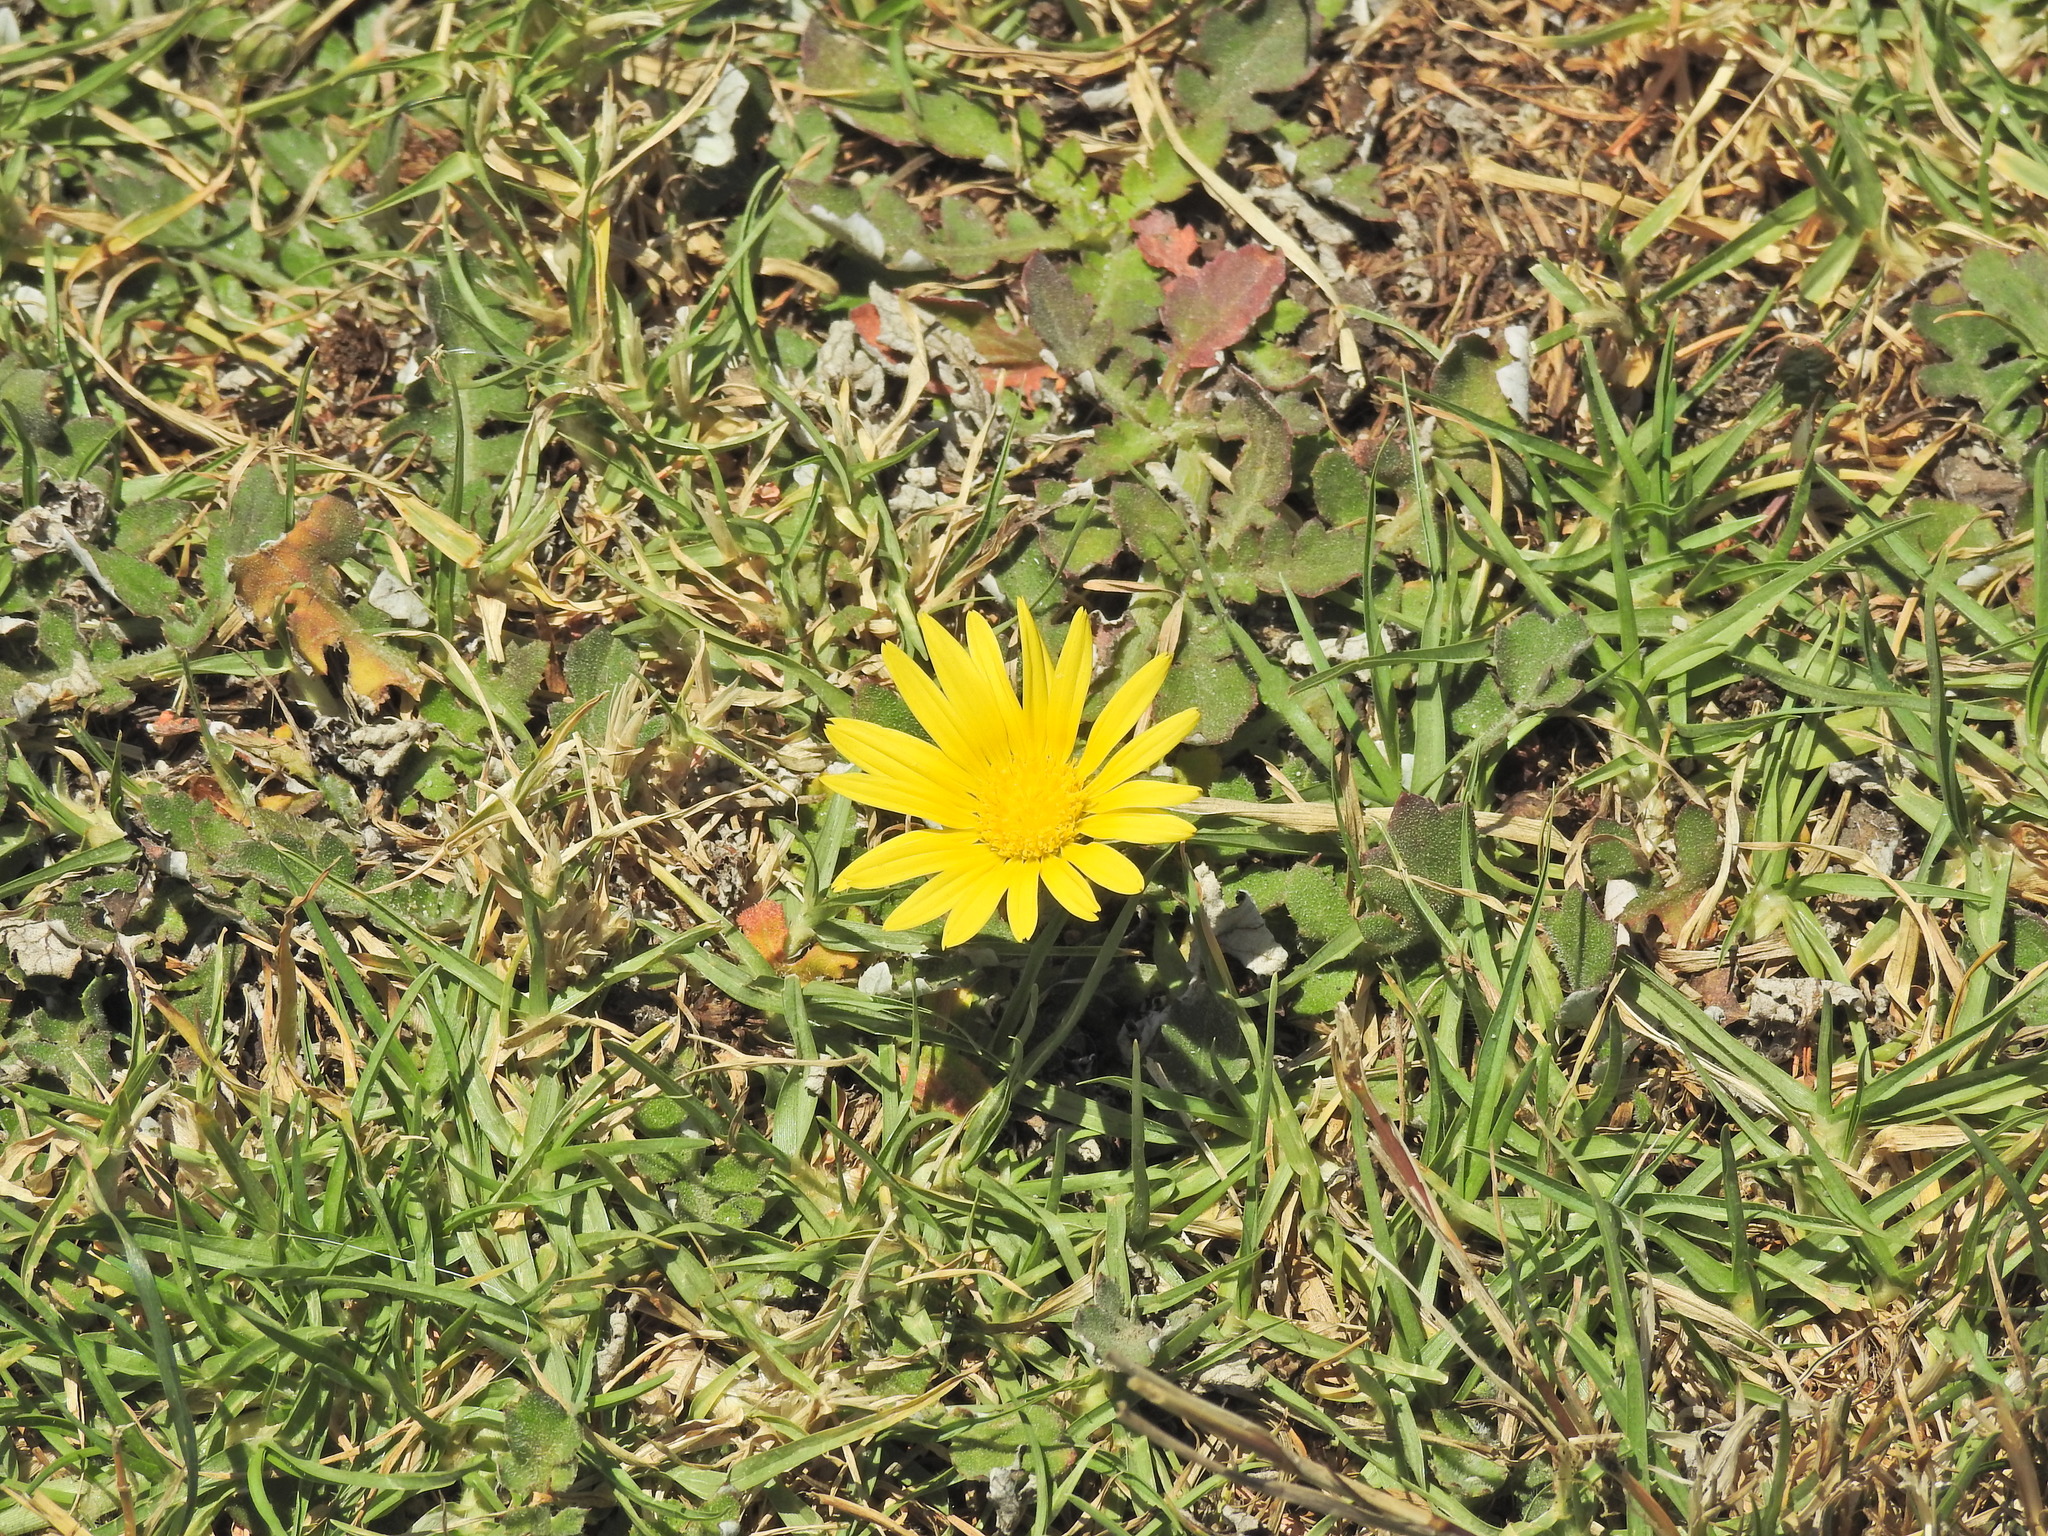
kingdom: Plantae
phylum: Tracheophyta
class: Magnoliopsida
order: Asterales
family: Asteraceae
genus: Arctotheca
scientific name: Arctotheca prostrata
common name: Capeweed
